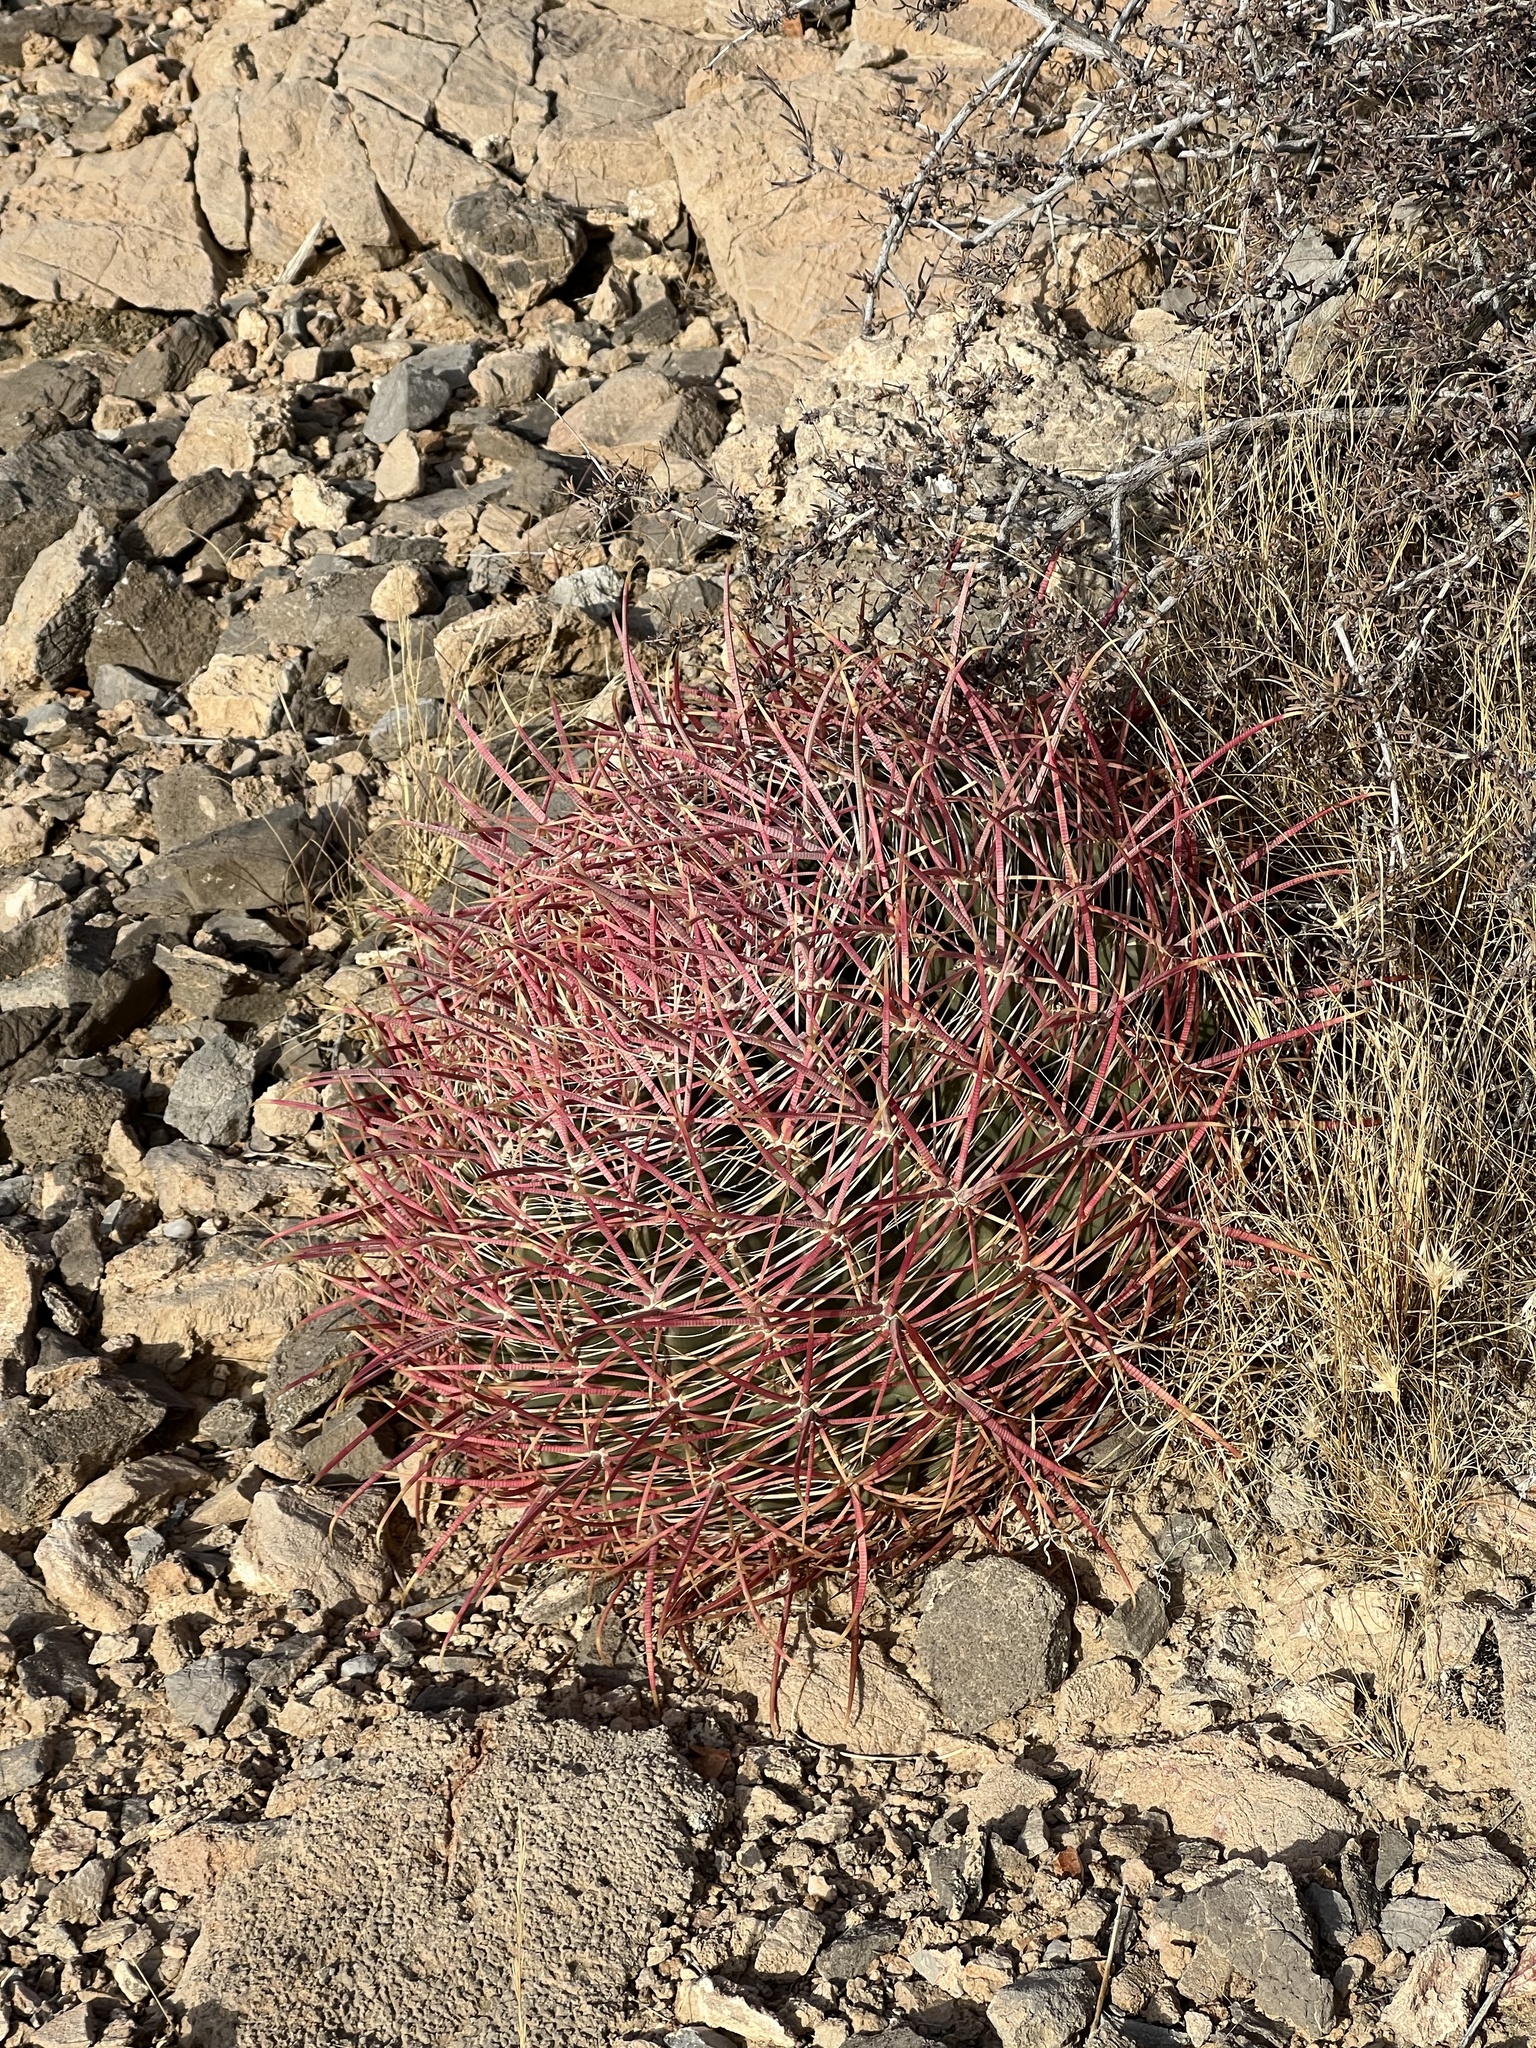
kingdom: Plantae
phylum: Tracheophyta
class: Magnoliopsida
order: Caryophyllales
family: Cactaceae
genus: Ferocactus
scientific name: Ferocactus cylindraceus
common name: California barrel cactus
